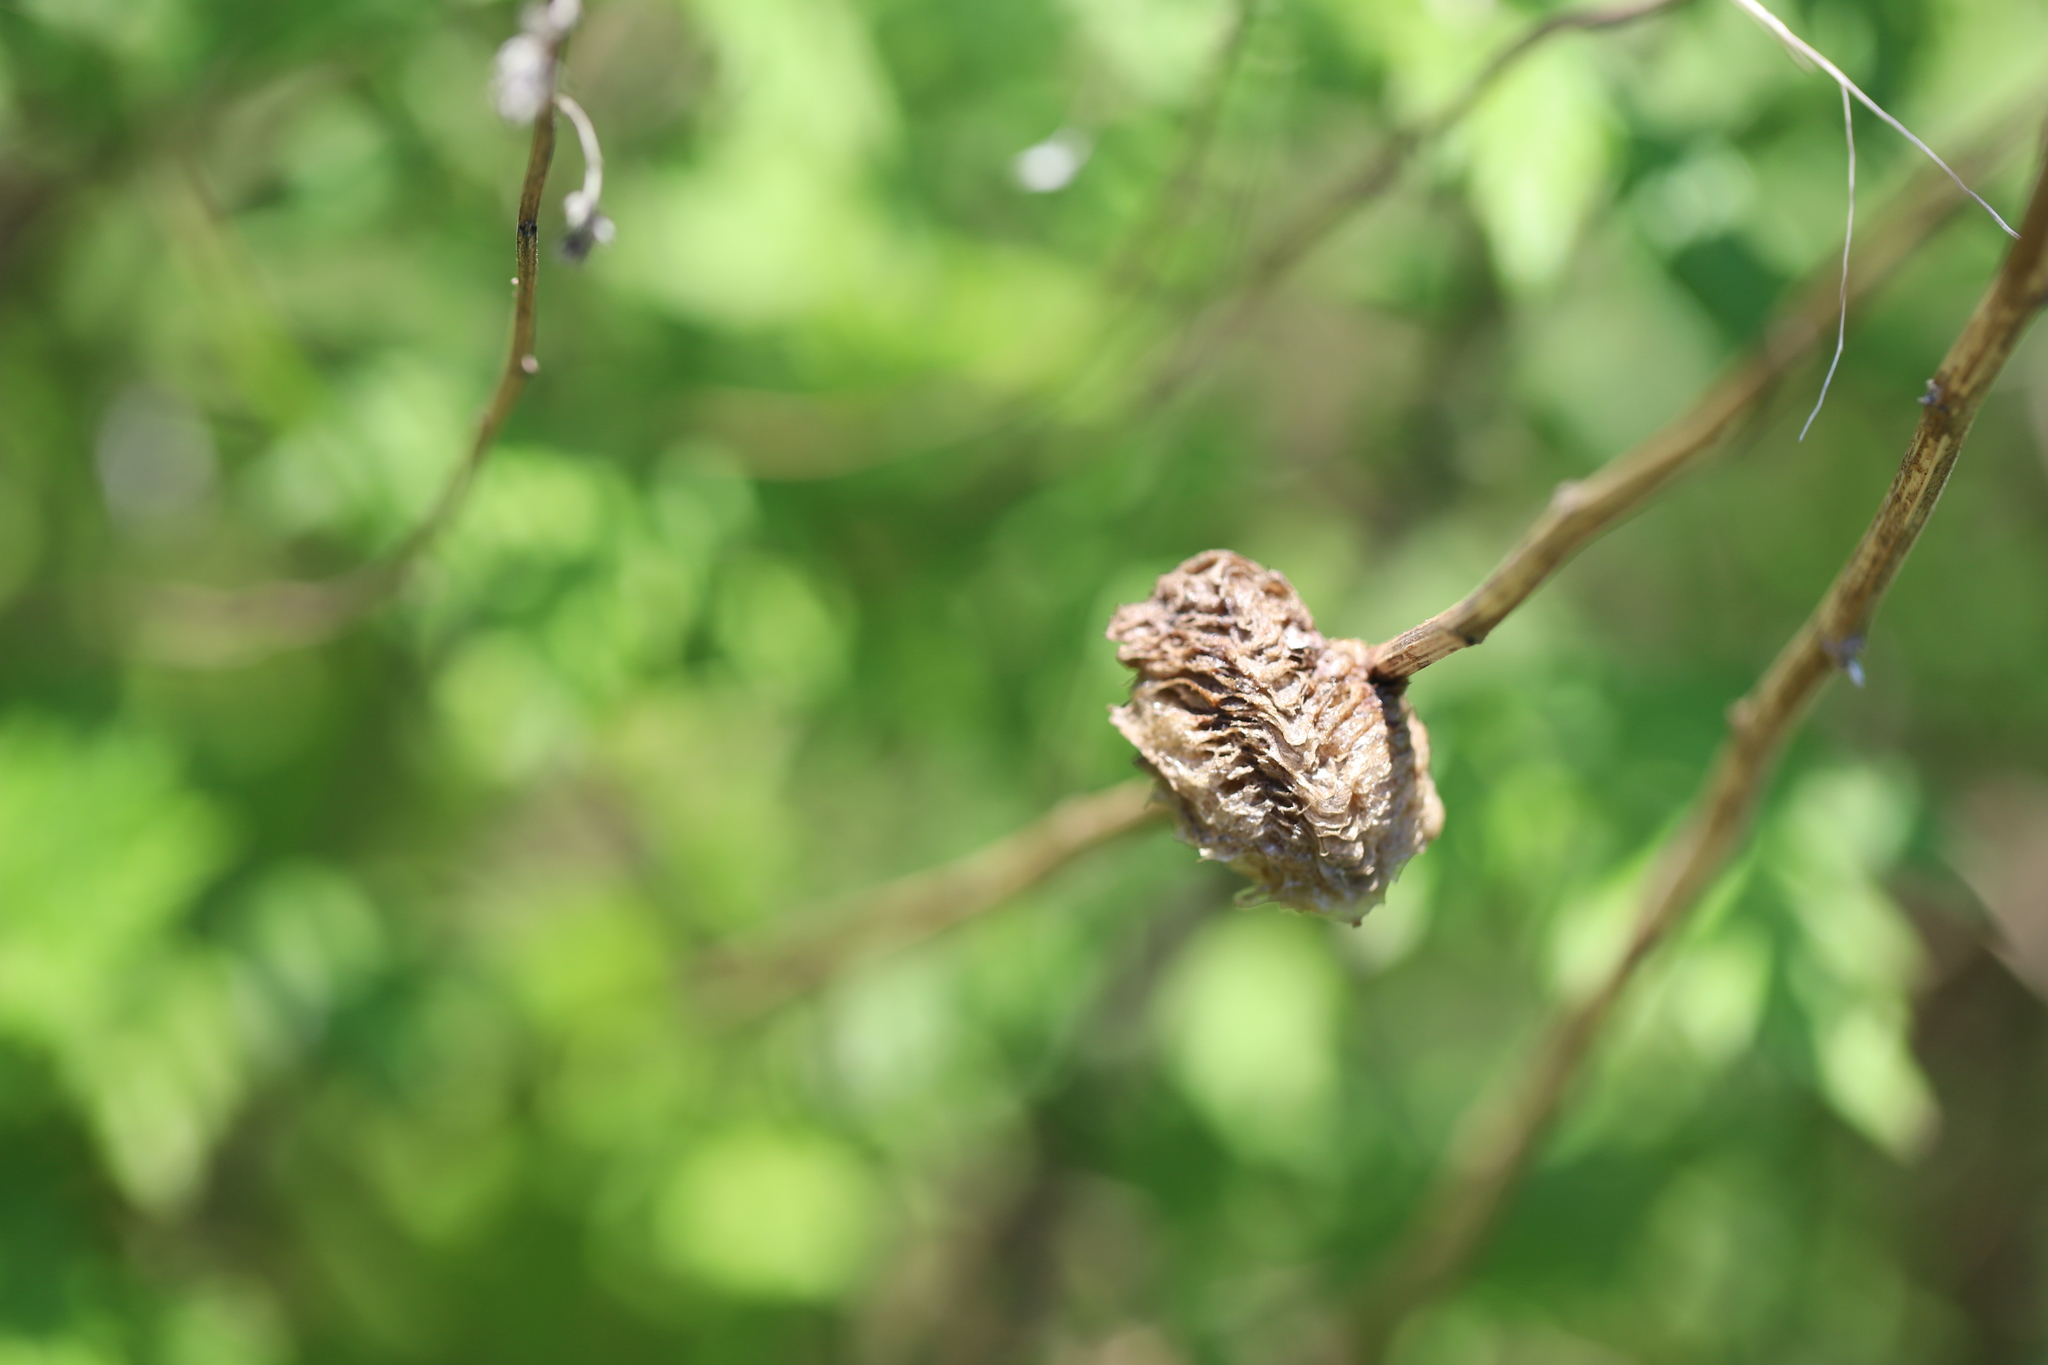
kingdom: Animalia
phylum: Arthropoda
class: Insecta
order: Mantodea
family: Mantidae
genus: Tenodera
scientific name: Tenodera sinensis
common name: Chinese mantis
